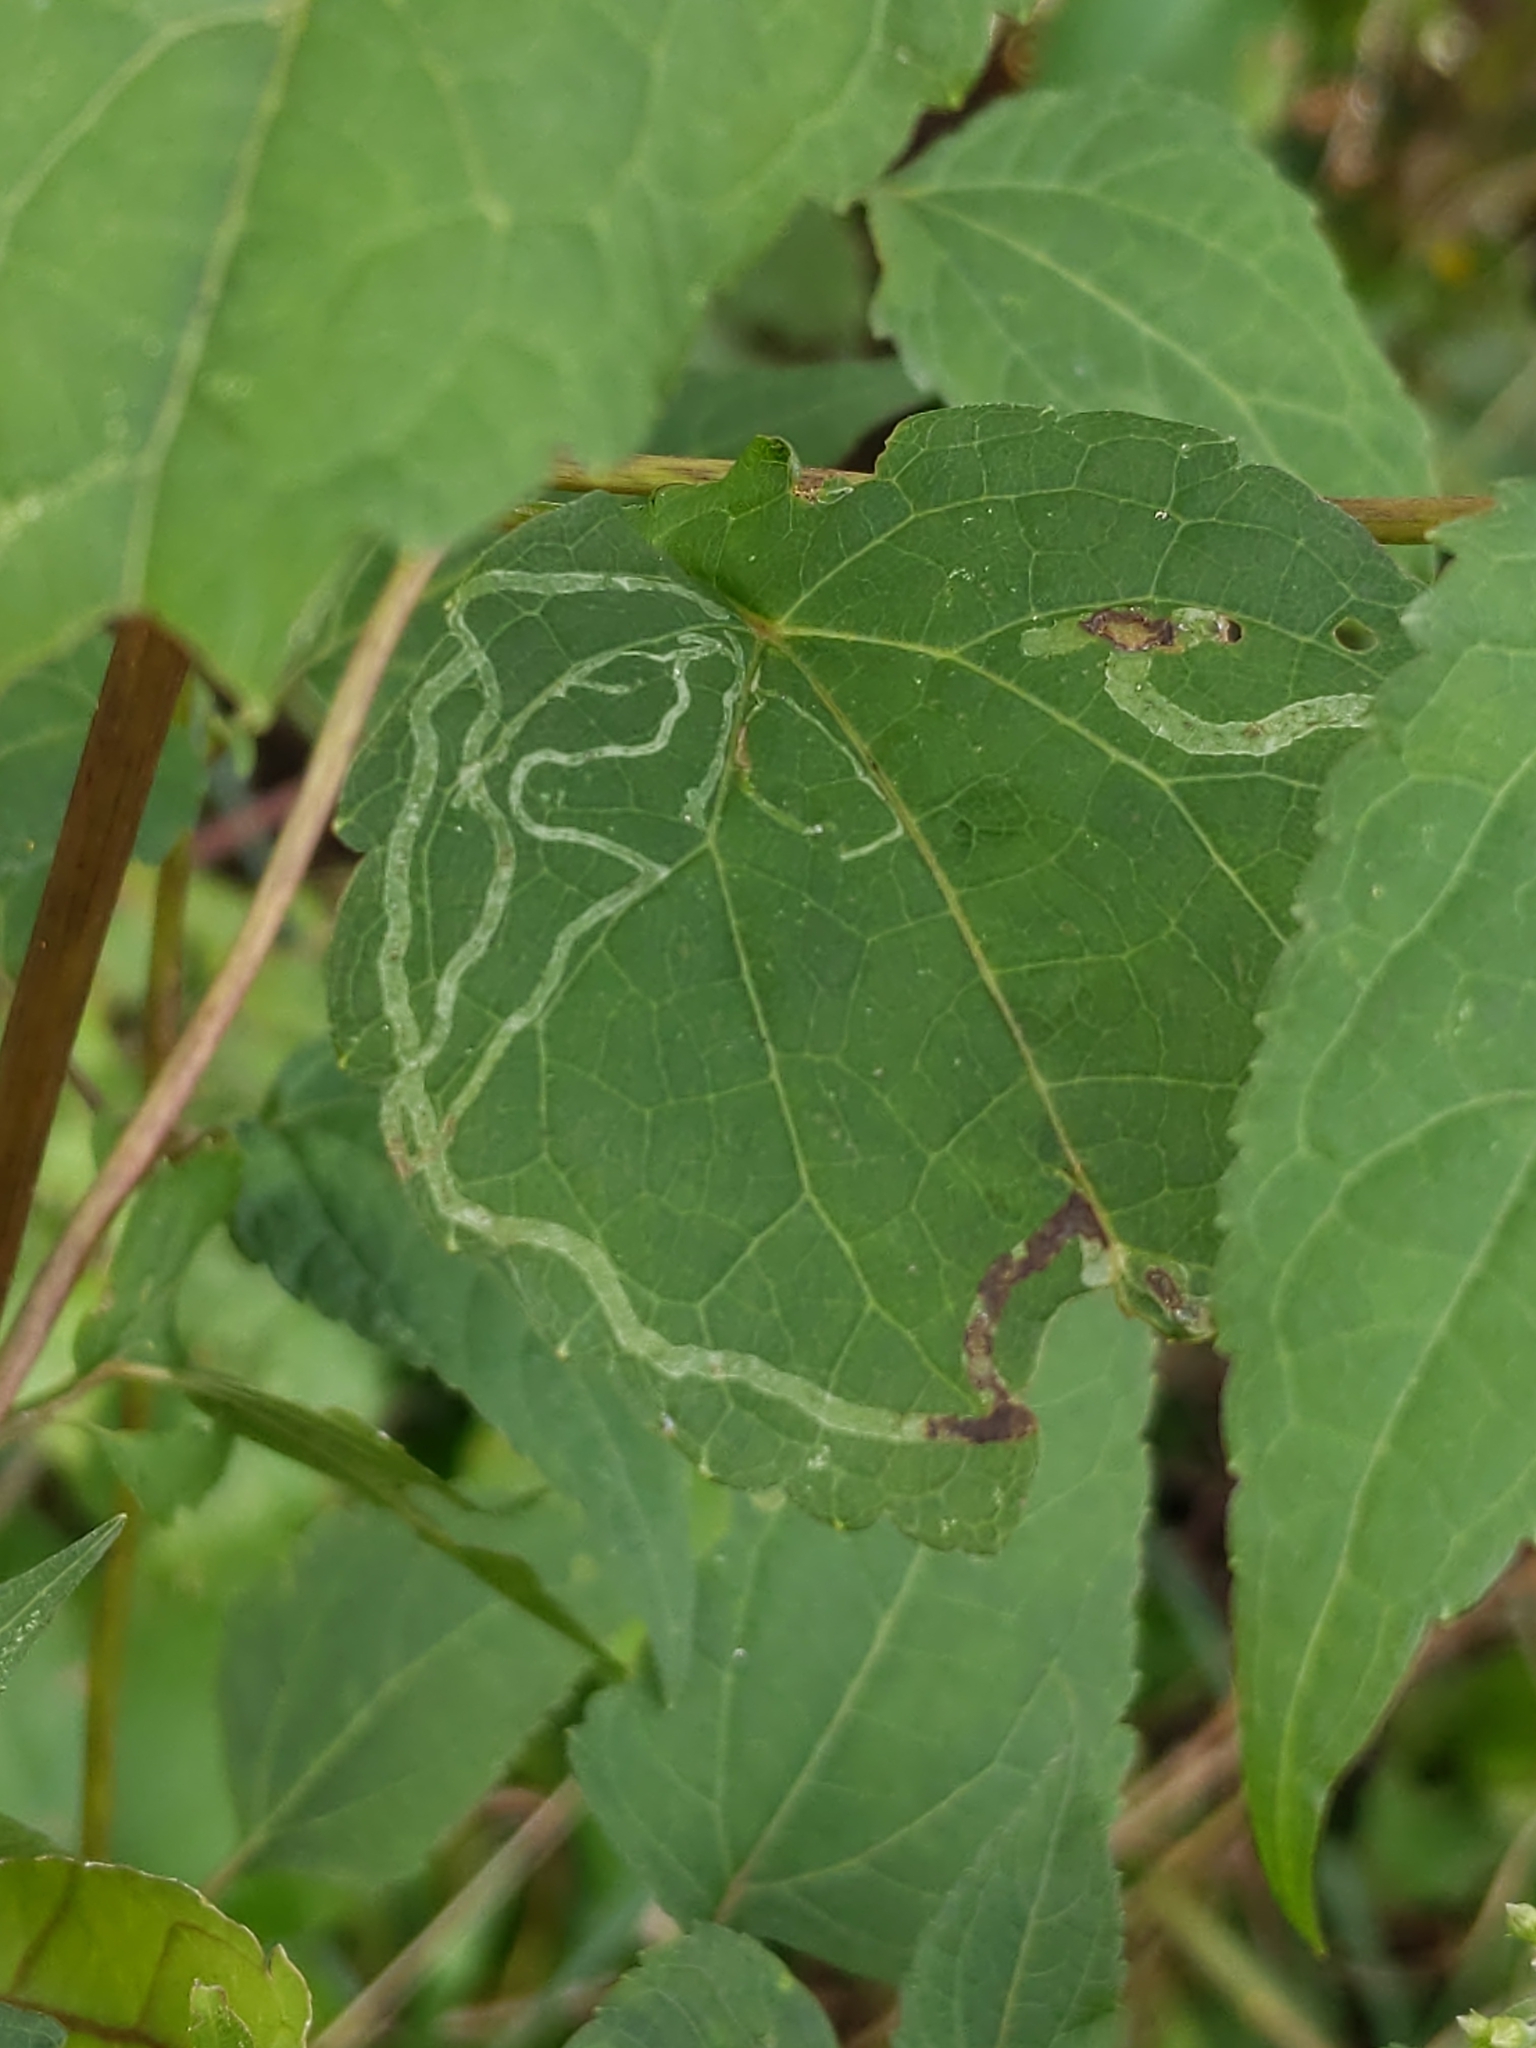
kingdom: Animalia
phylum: Arthropoda
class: Insecta
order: Diptera
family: Agromyzidae
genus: Liriomyza
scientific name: Liriomyza
